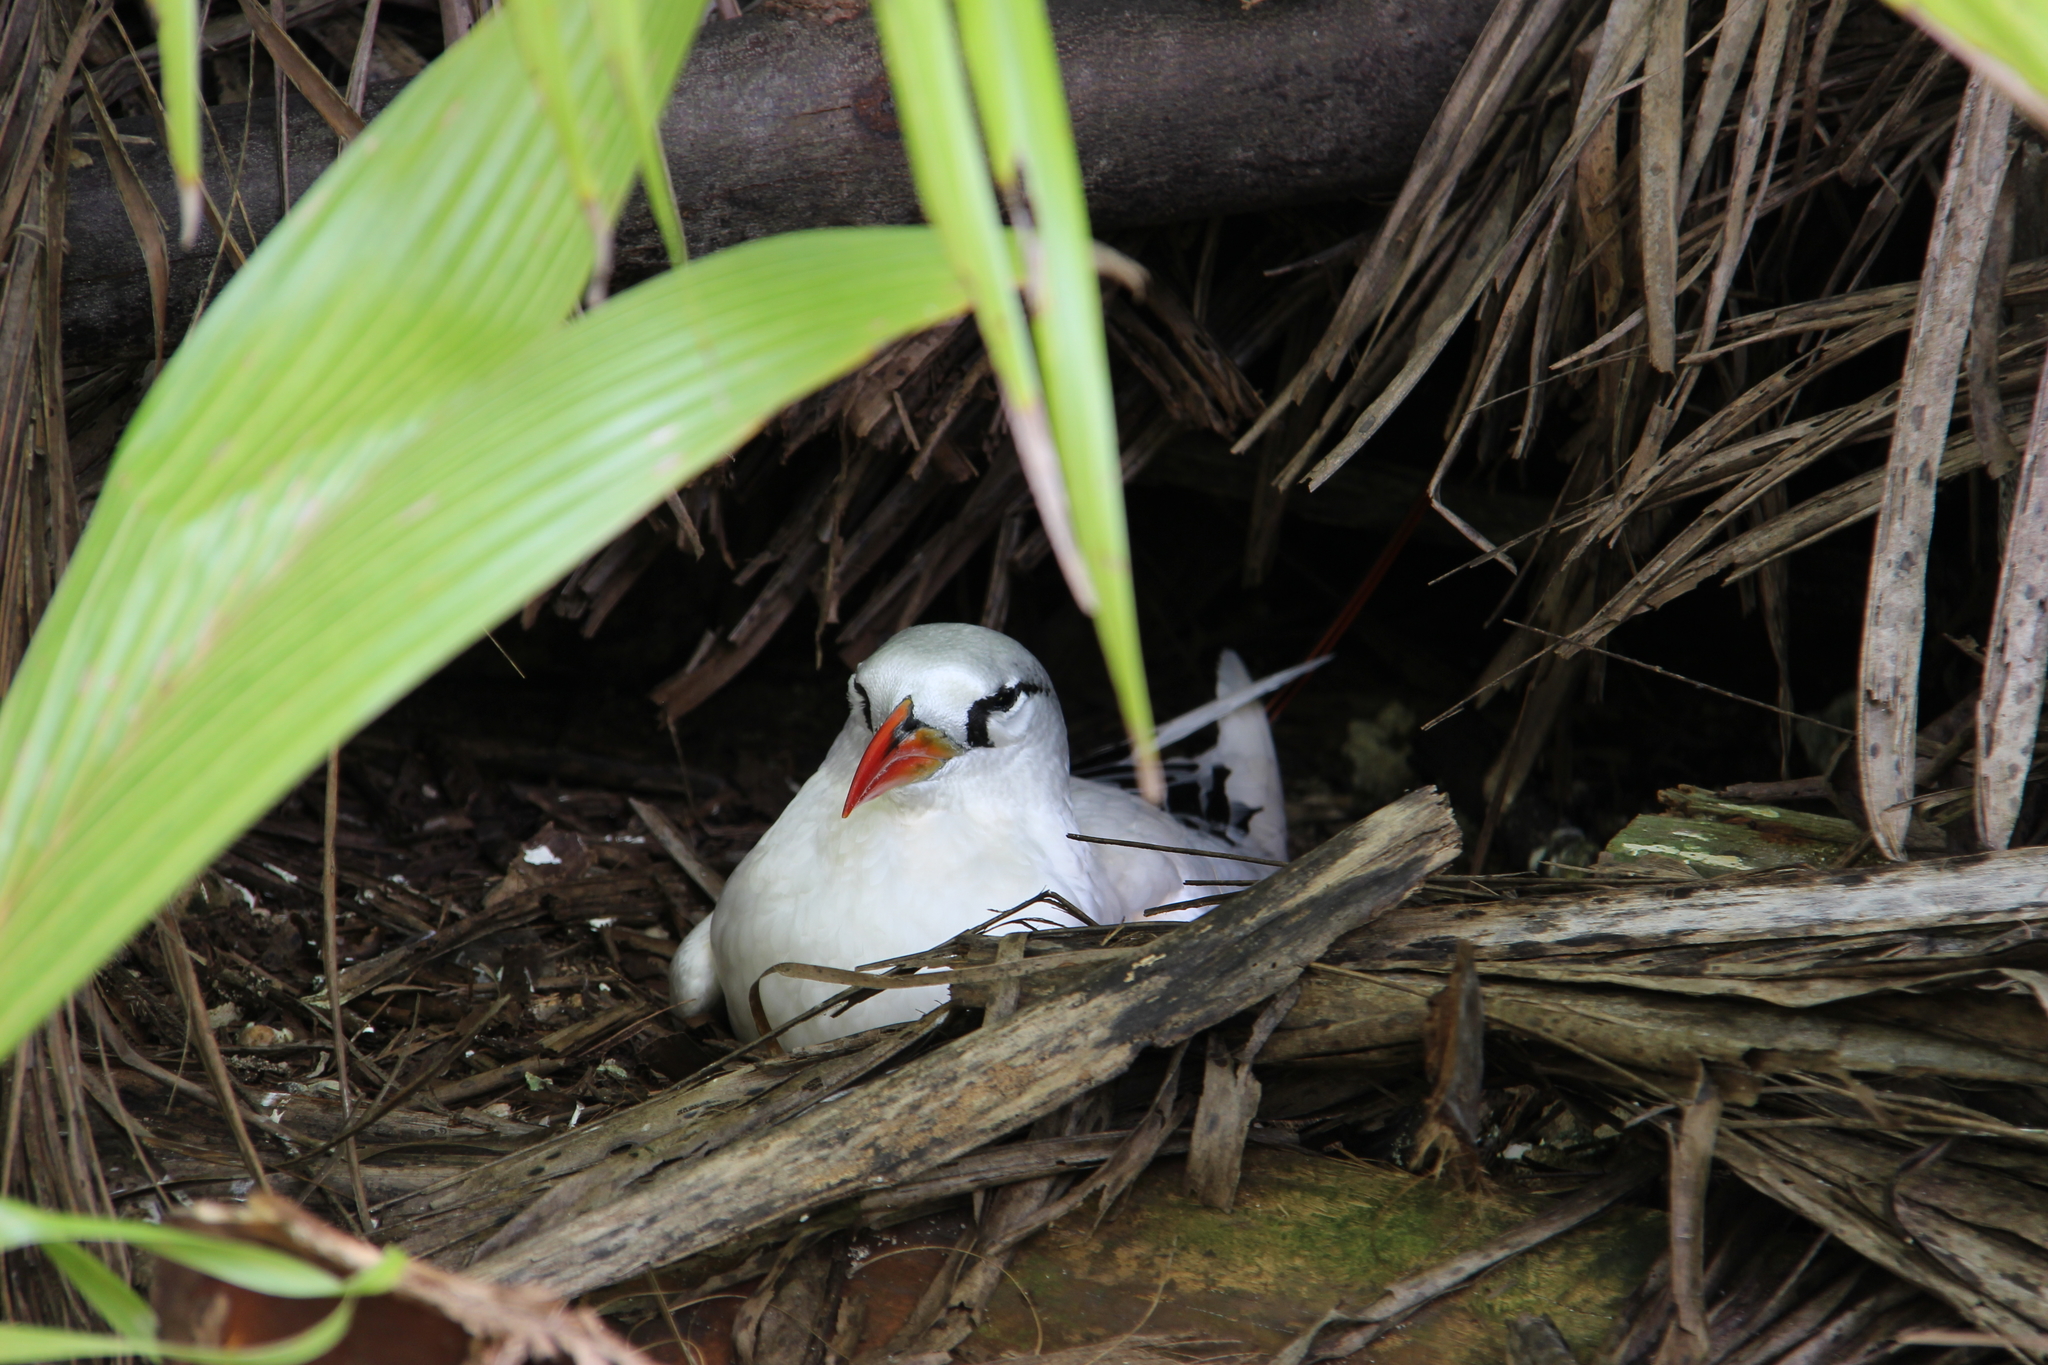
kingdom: Animalia
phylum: Chordata
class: Aves
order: Phaethontiformes
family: Phaethontidae
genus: Phaethon
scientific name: Phaethon rubricauda
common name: Red-tailed tropicbird
